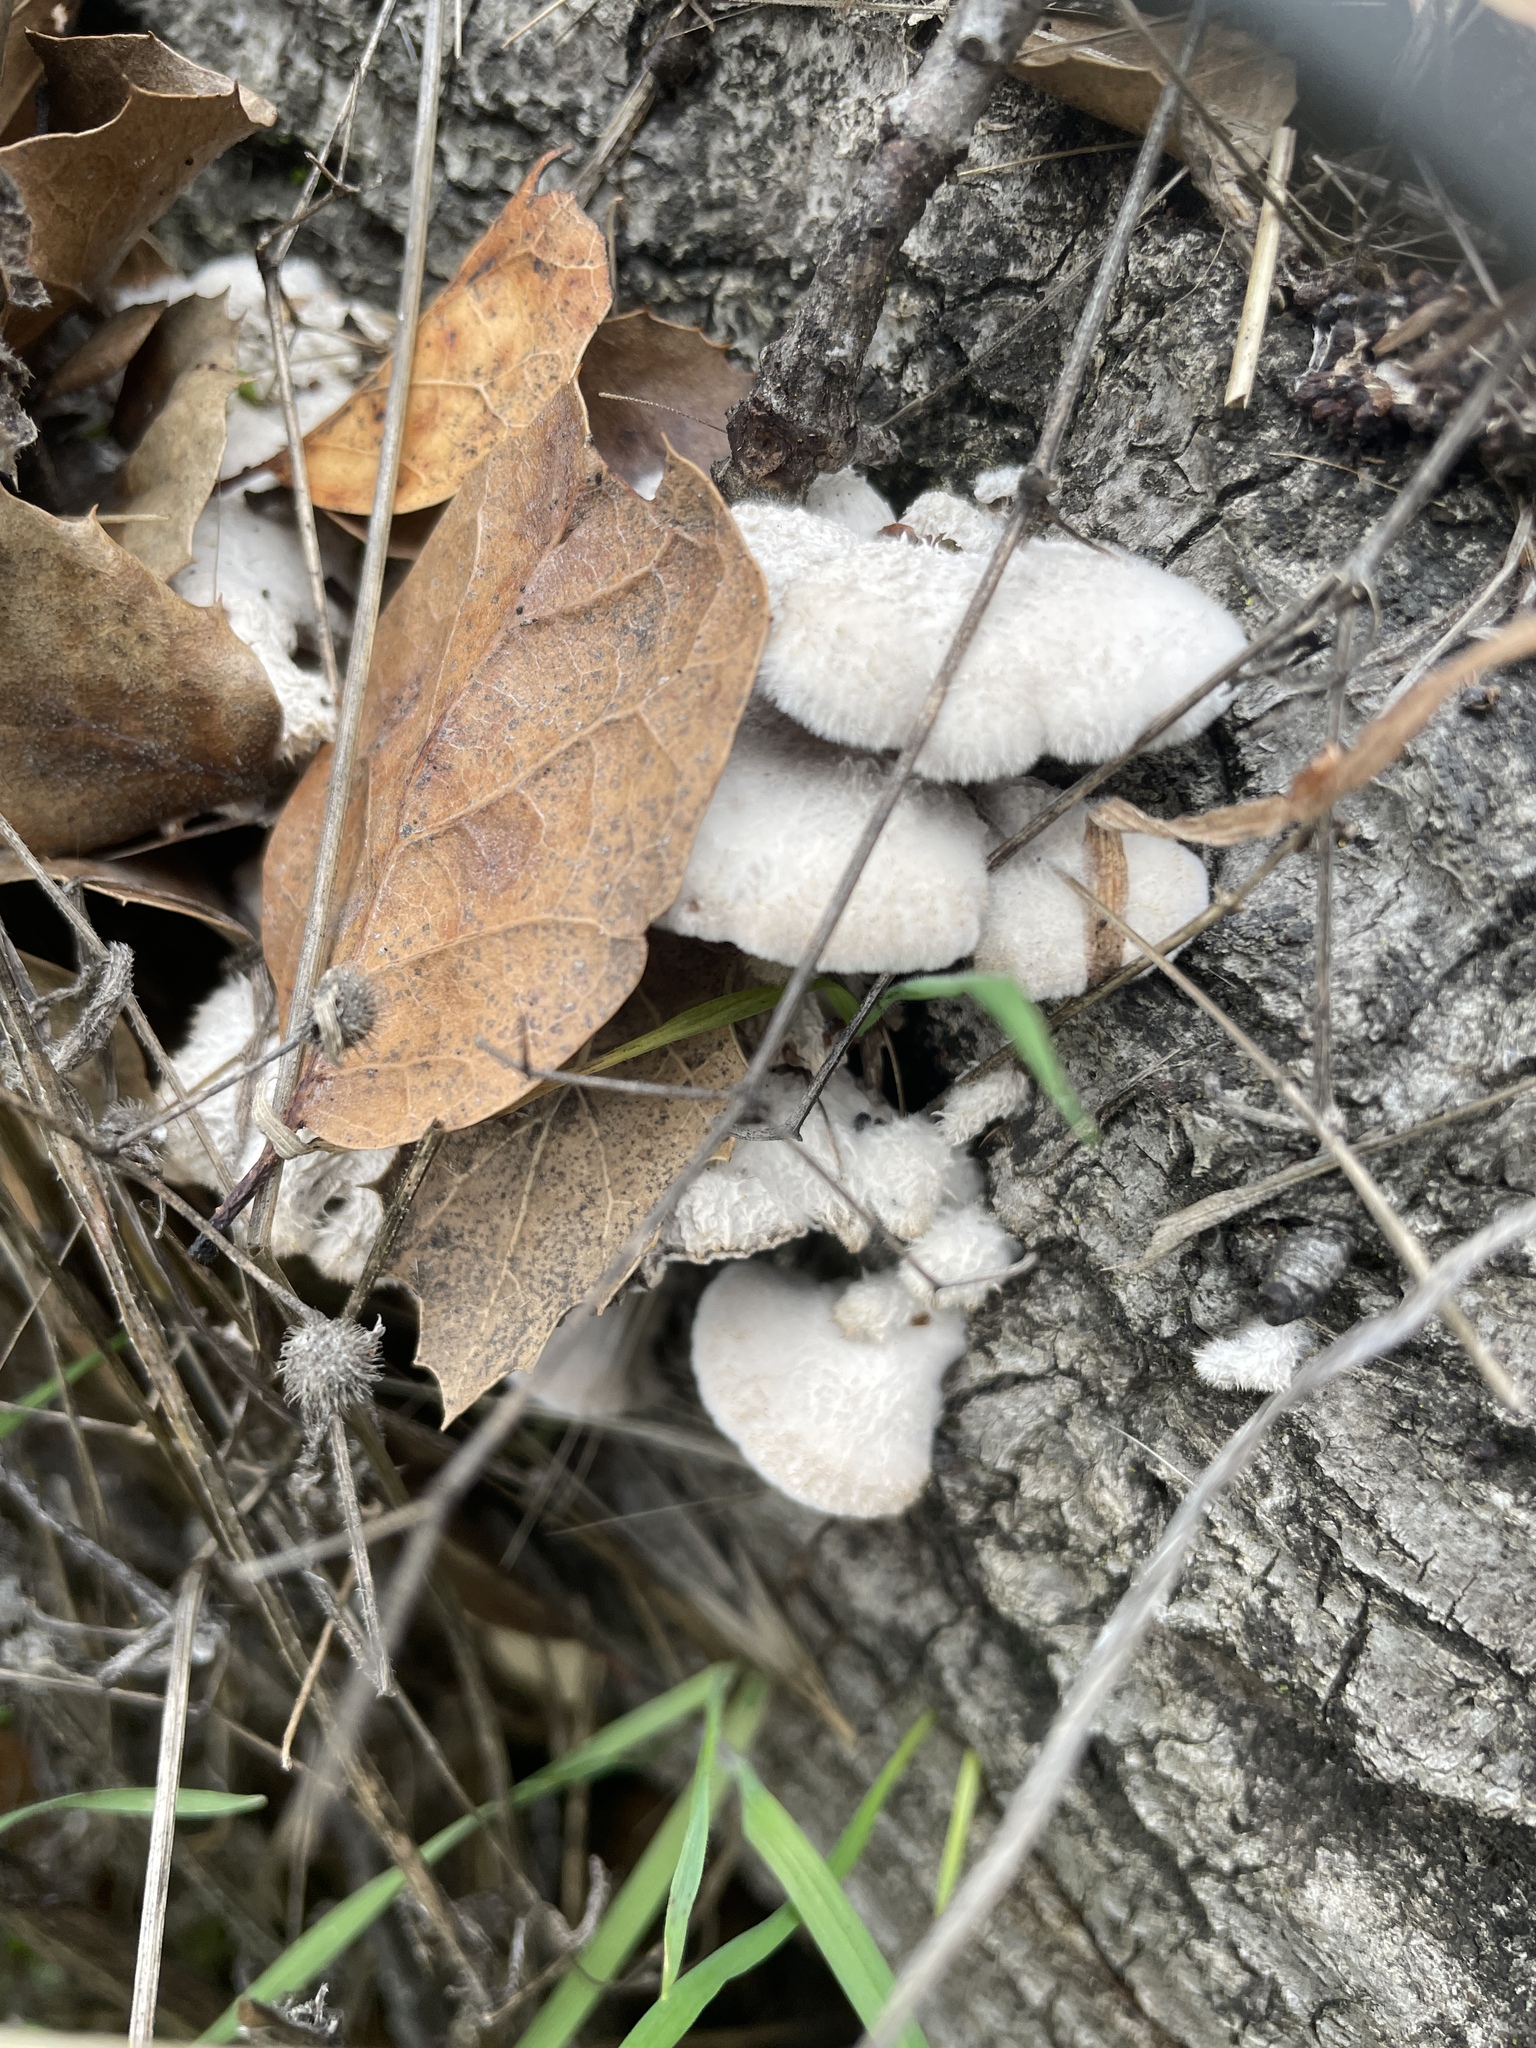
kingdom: Fungi
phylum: Basidiomycota
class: Agaricomycetes
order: Agaricales
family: Schizophyllaceae
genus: Schizophyllum
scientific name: Schizophyllum commune
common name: Common porecrust
